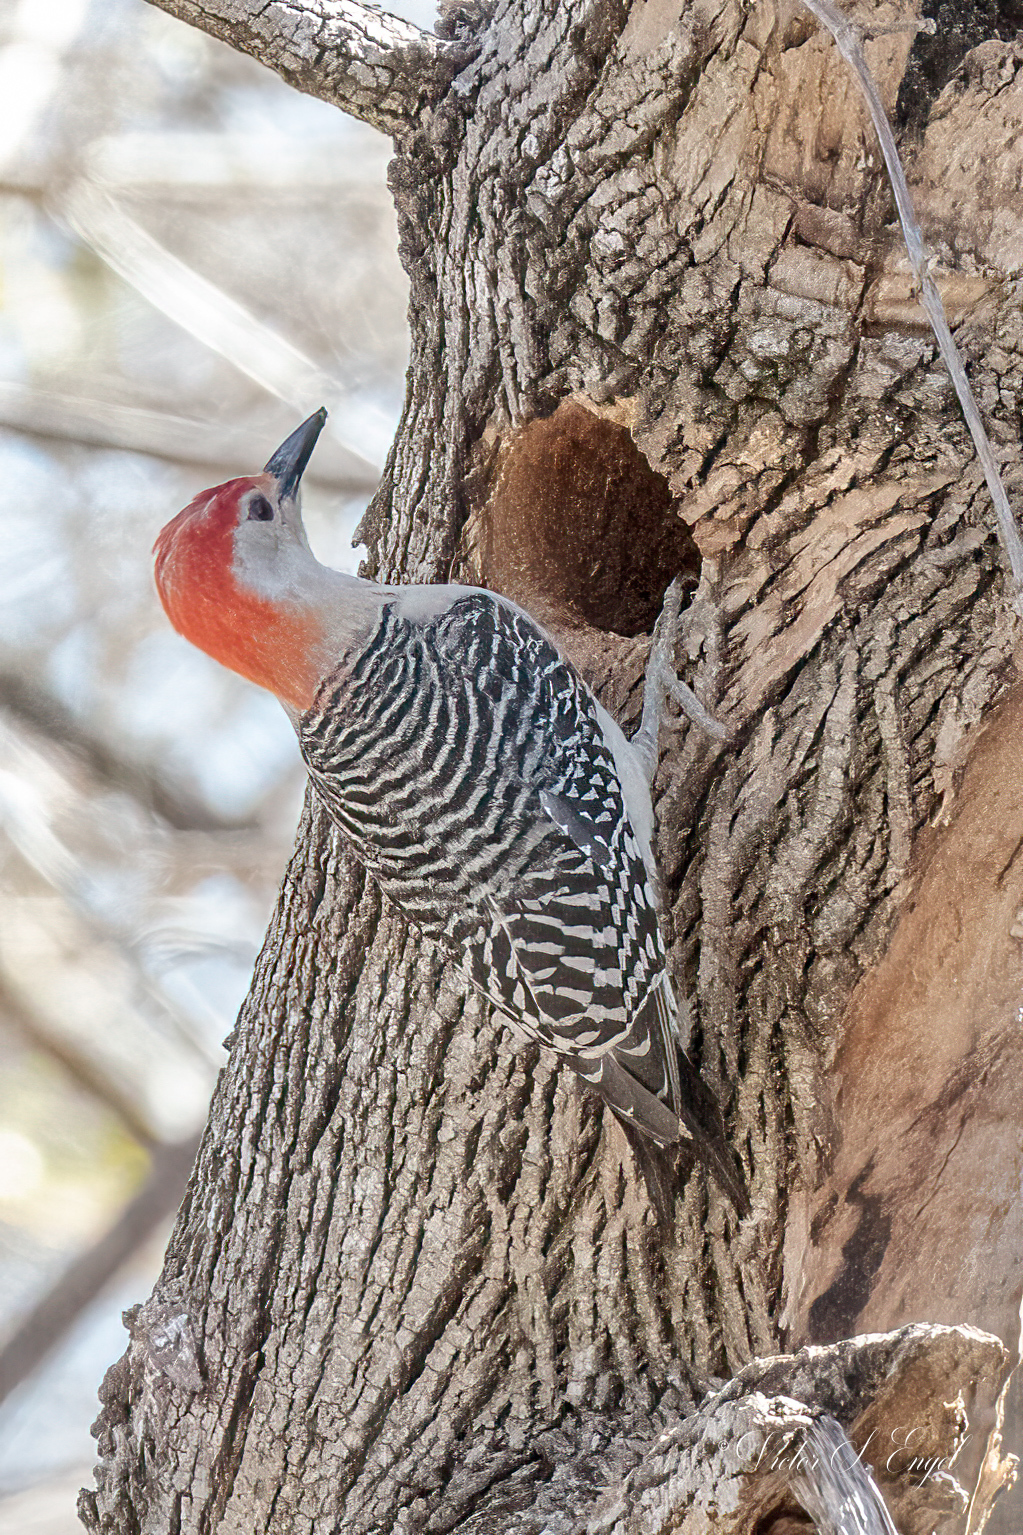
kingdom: Animalia
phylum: Chordata
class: Aves
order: Piciformes
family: Picidae
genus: Melanerpes
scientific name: Melanerpes carolinus
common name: Red-bellied woodpecker
